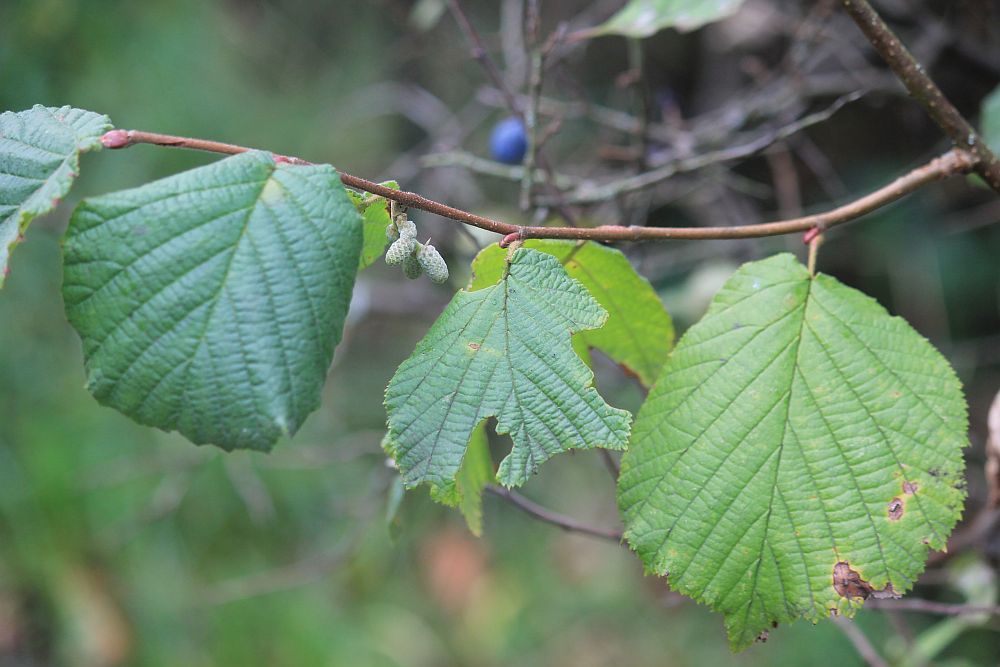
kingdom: Plantae
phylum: Tracheophyta
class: Magnoliopsida
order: Fagales
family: Betulaceae
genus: Corylus
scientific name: Corylus avellana
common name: European hazel
